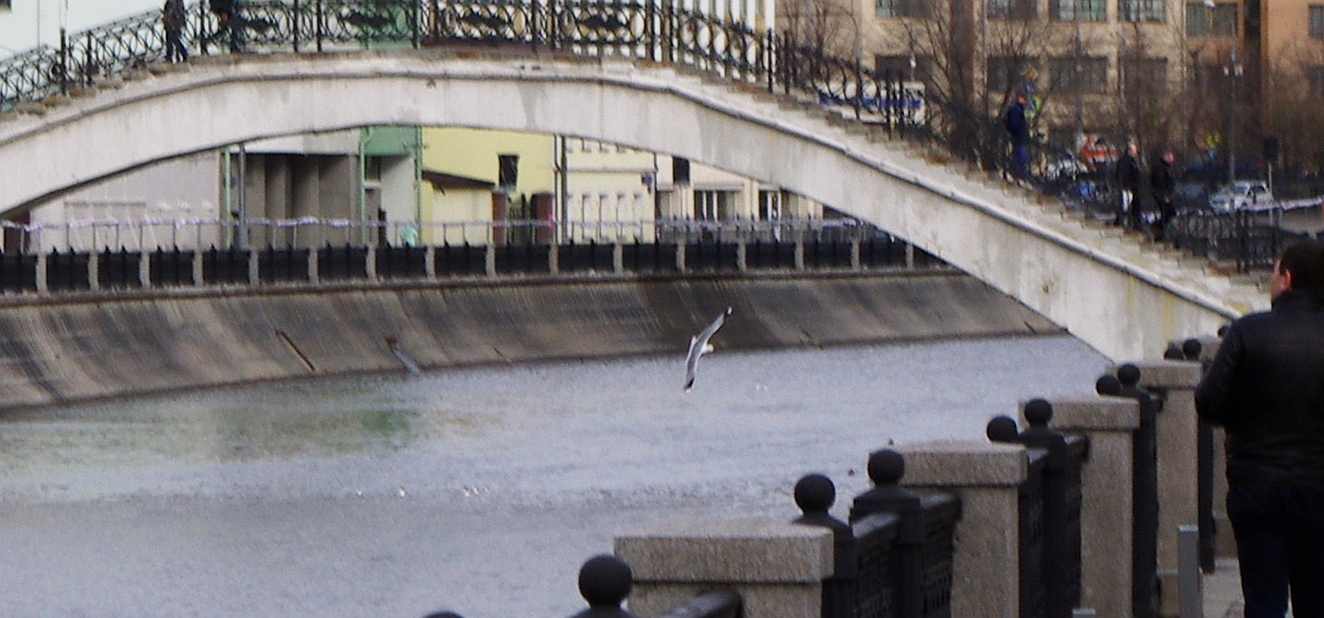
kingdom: Animalia
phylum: Chordata
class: Aves
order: Charadriiformes
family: Laridae
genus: Larus
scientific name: Larus canus
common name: Mew gull
